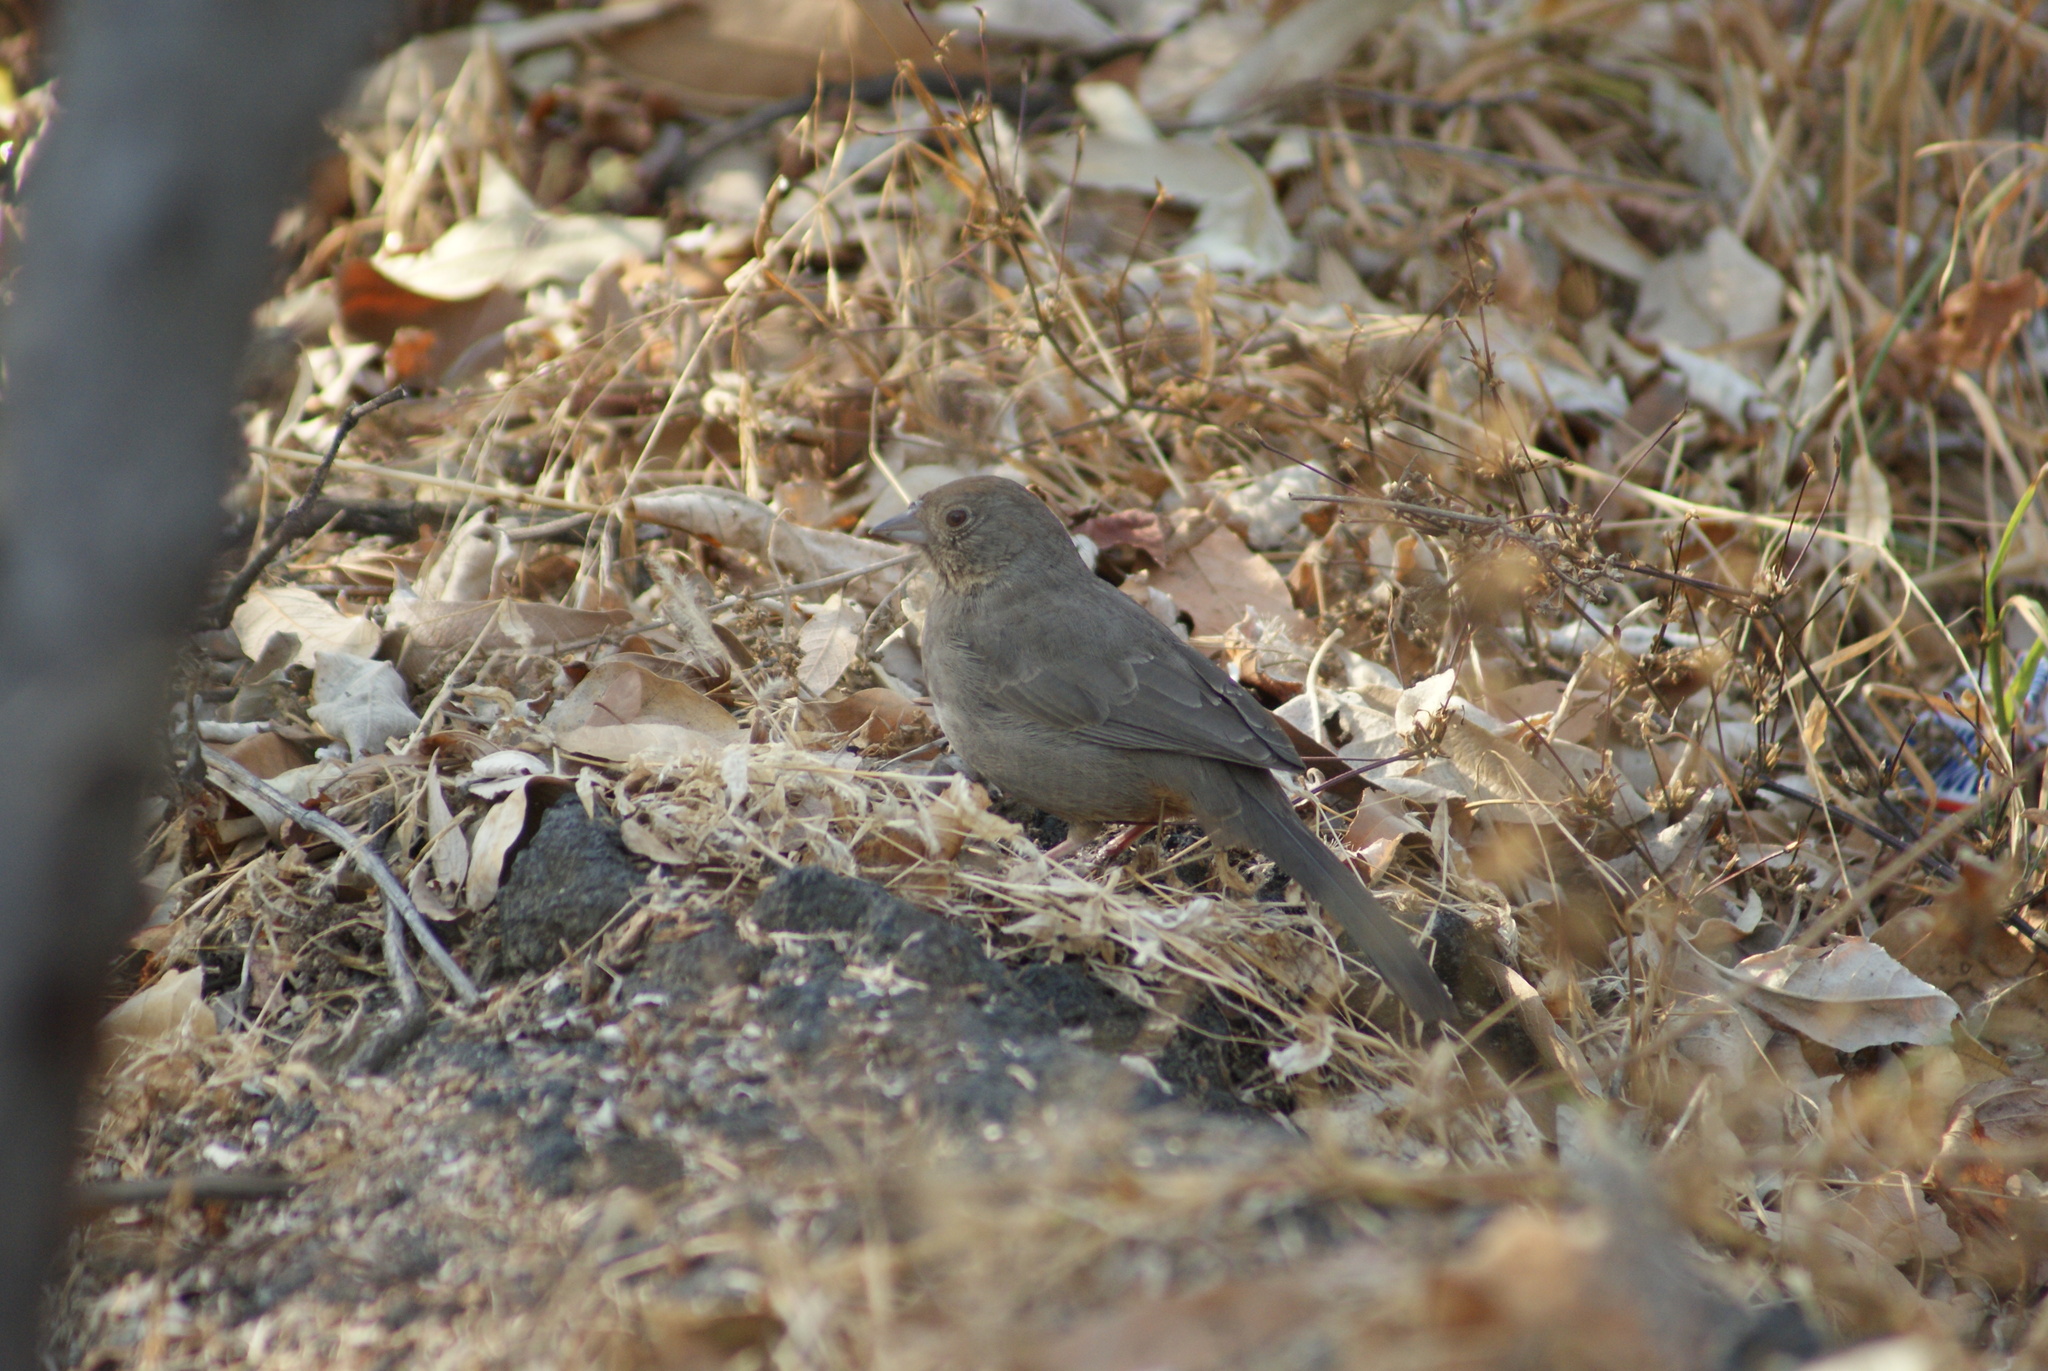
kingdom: Animalia
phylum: Chordata
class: Aves
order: Passeriformes
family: Passerellidae
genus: Melozone
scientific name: Melozone fusca
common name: Canyon towhee
